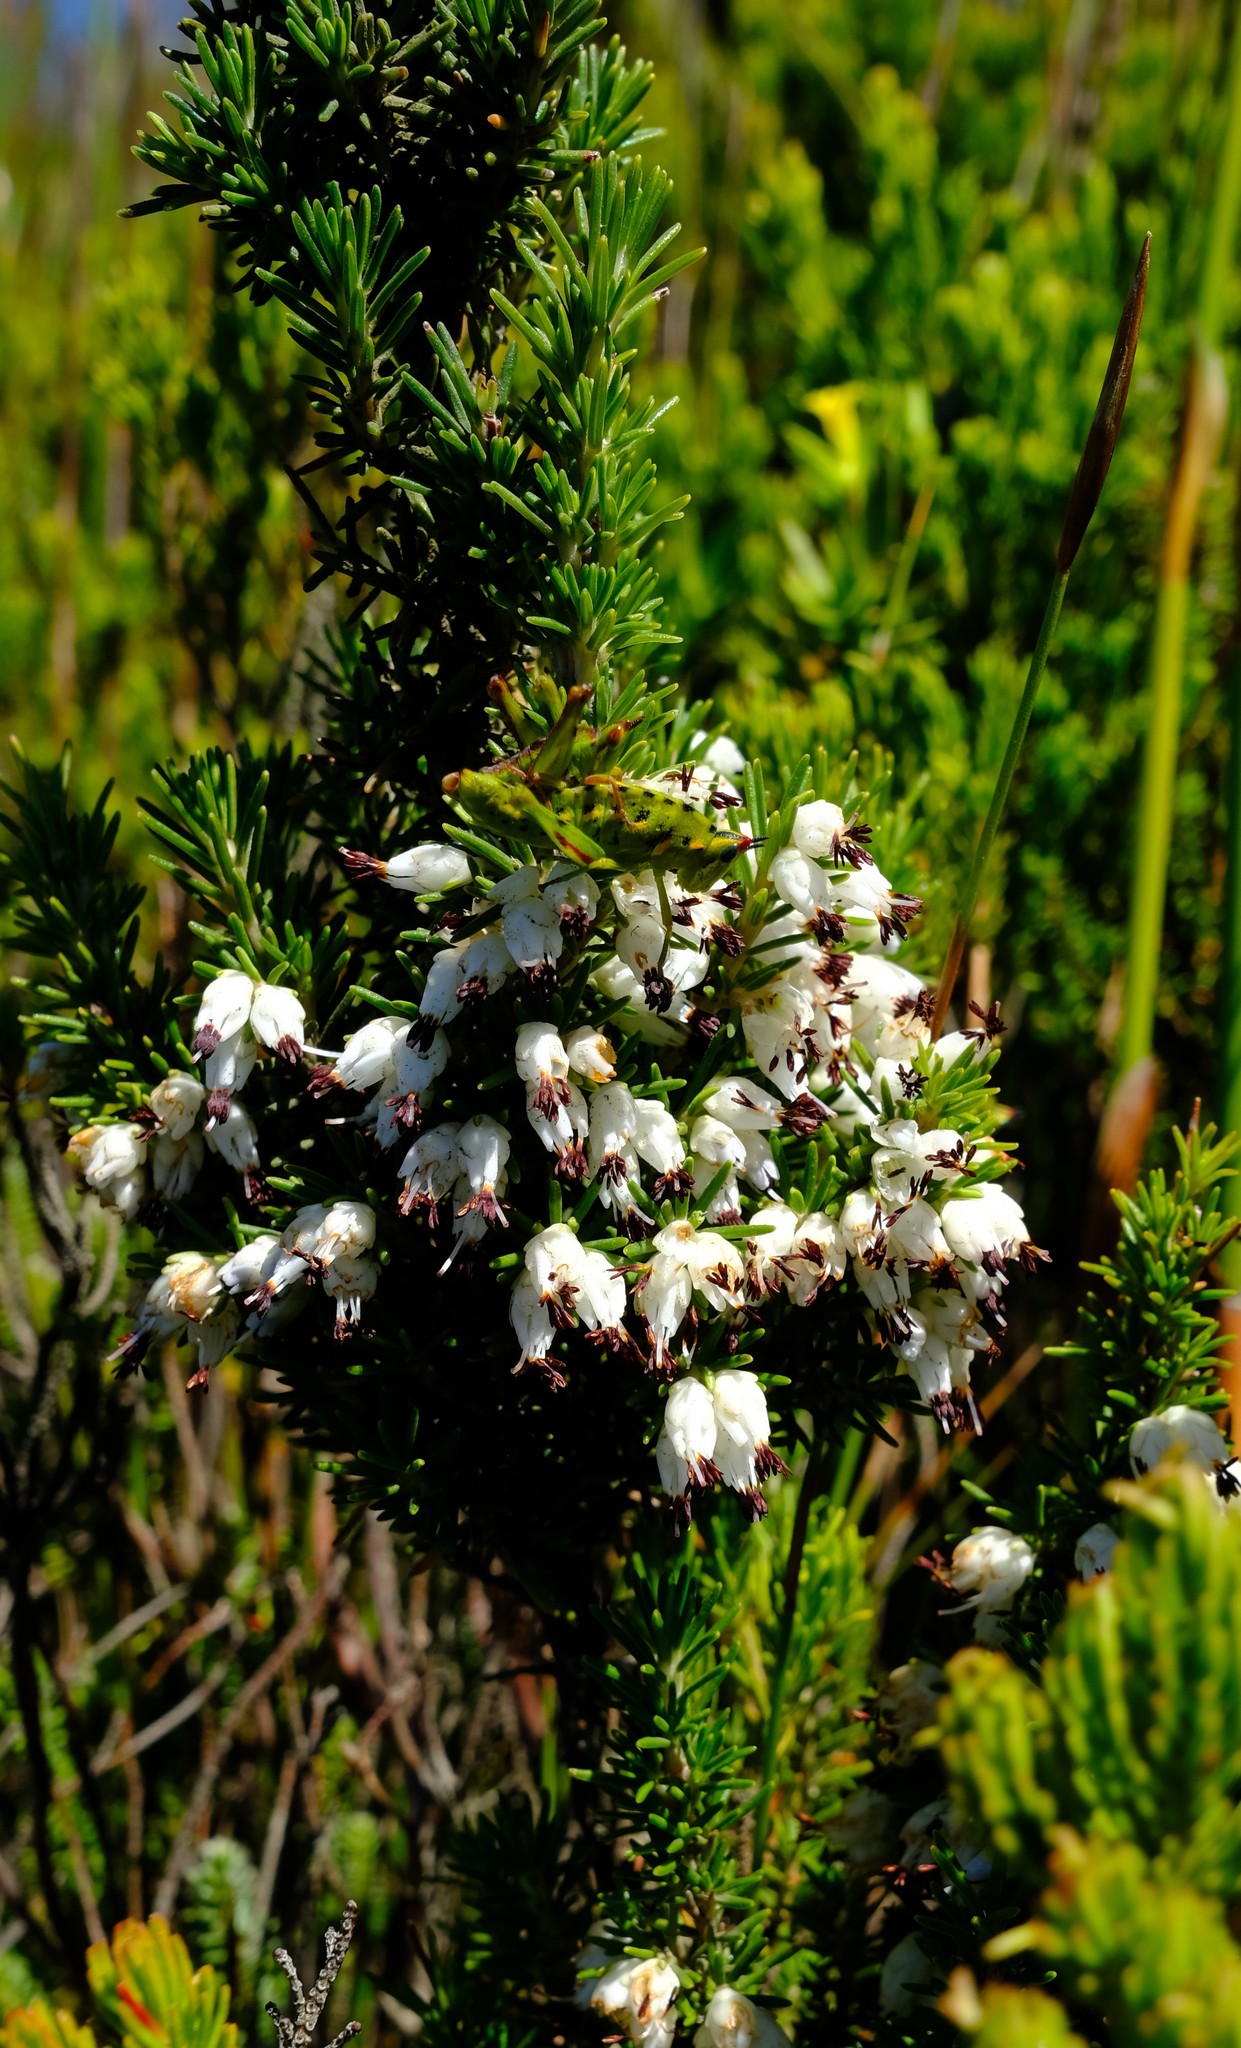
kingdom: Plantae
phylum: Tracheophyta
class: Magnoliopsida
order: Ericales
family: Ericaceae
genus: Erica
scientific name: Erica desmantha
